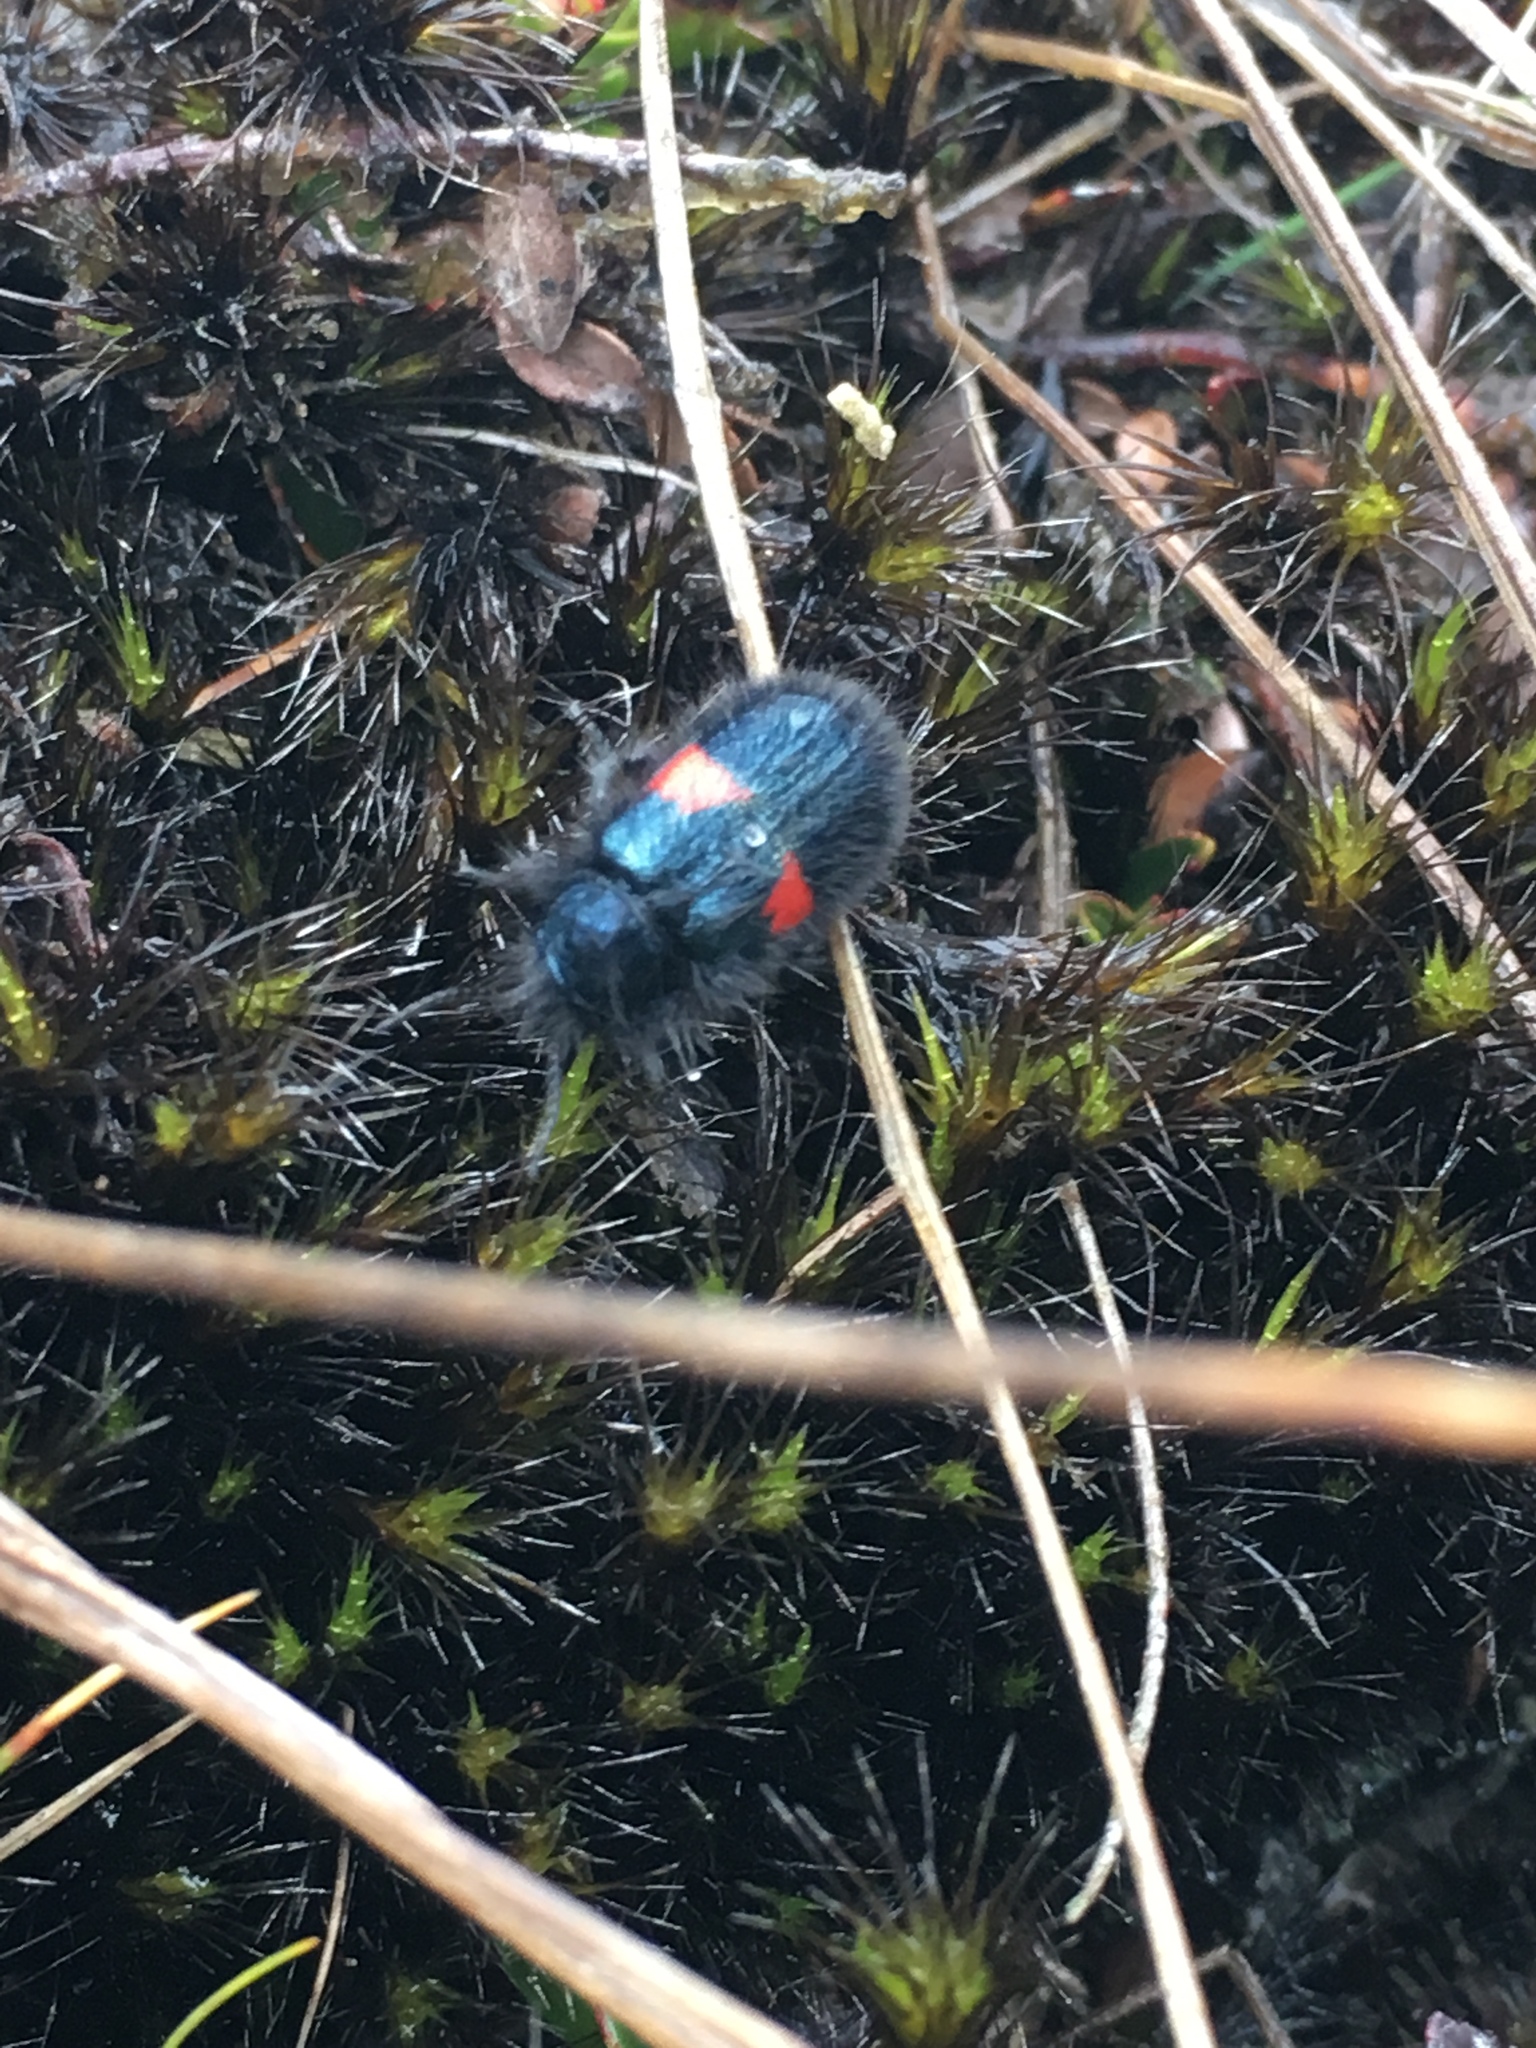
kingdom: Animalia
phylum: Arthropoda
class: Insecta
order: Coleoptera
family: Melyridae
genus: Astylus
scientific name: Astylus
